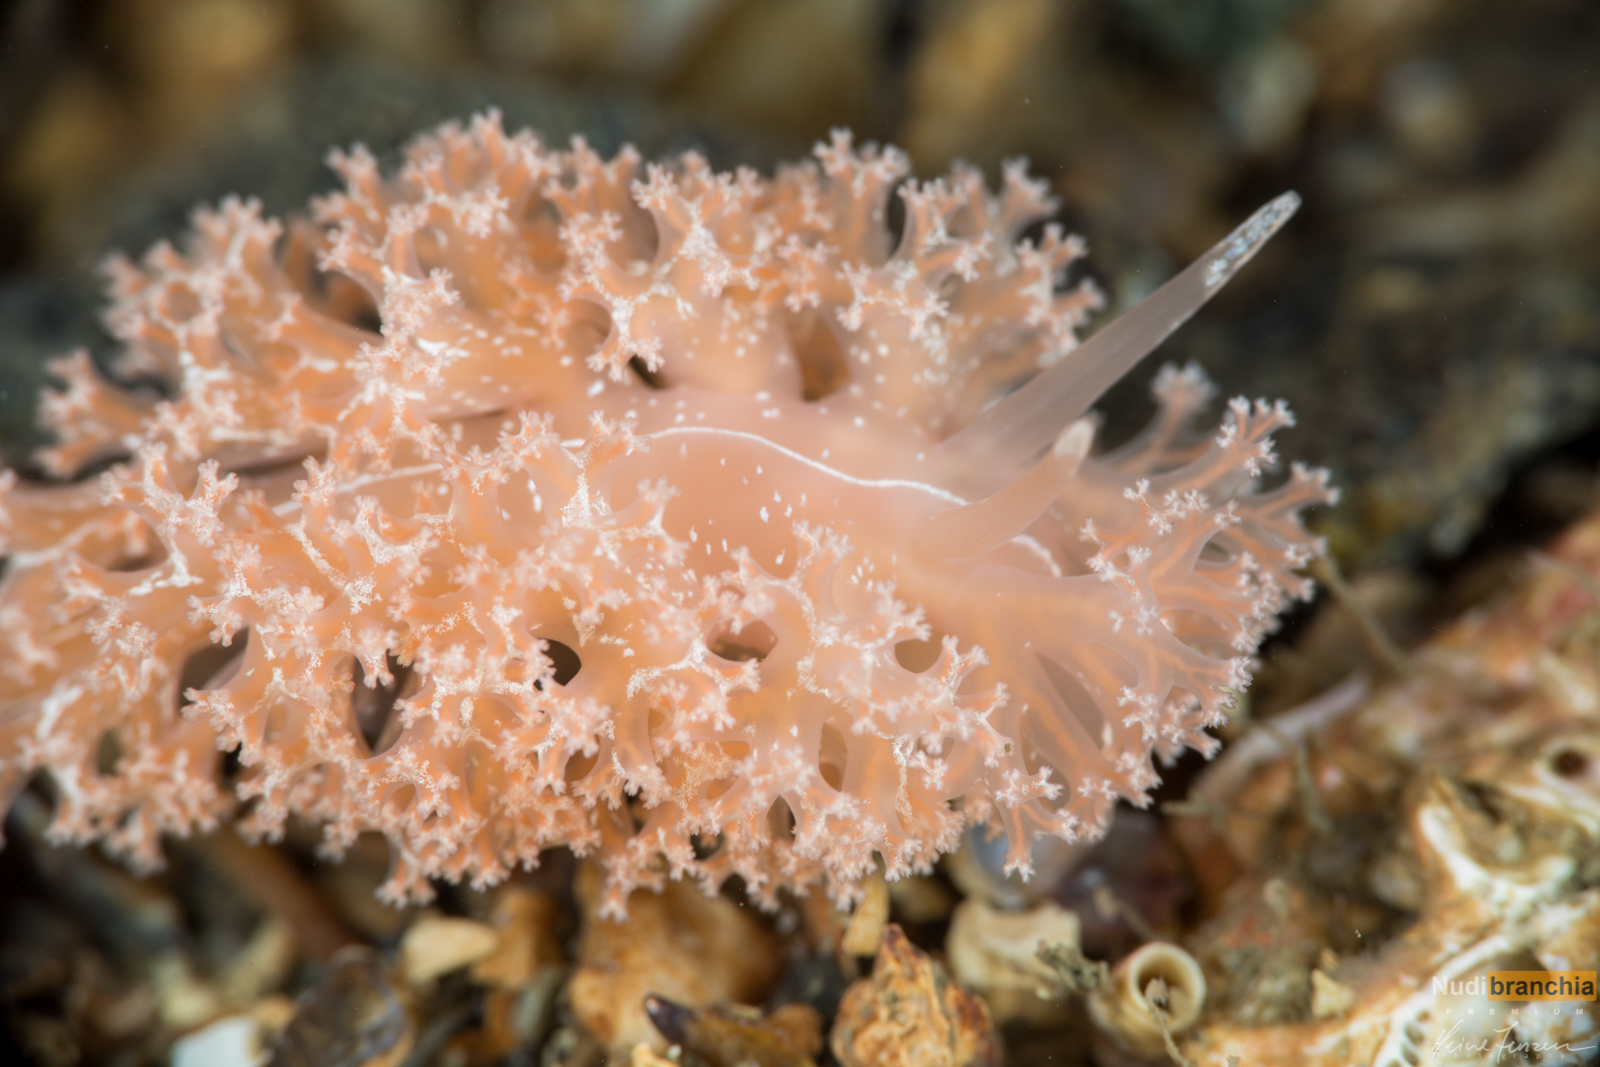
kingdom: Animalia
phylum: Mollusca
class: Gastropoda
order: Nudibranchia
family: Heroidae
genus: Hero
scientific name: Hero formosa
